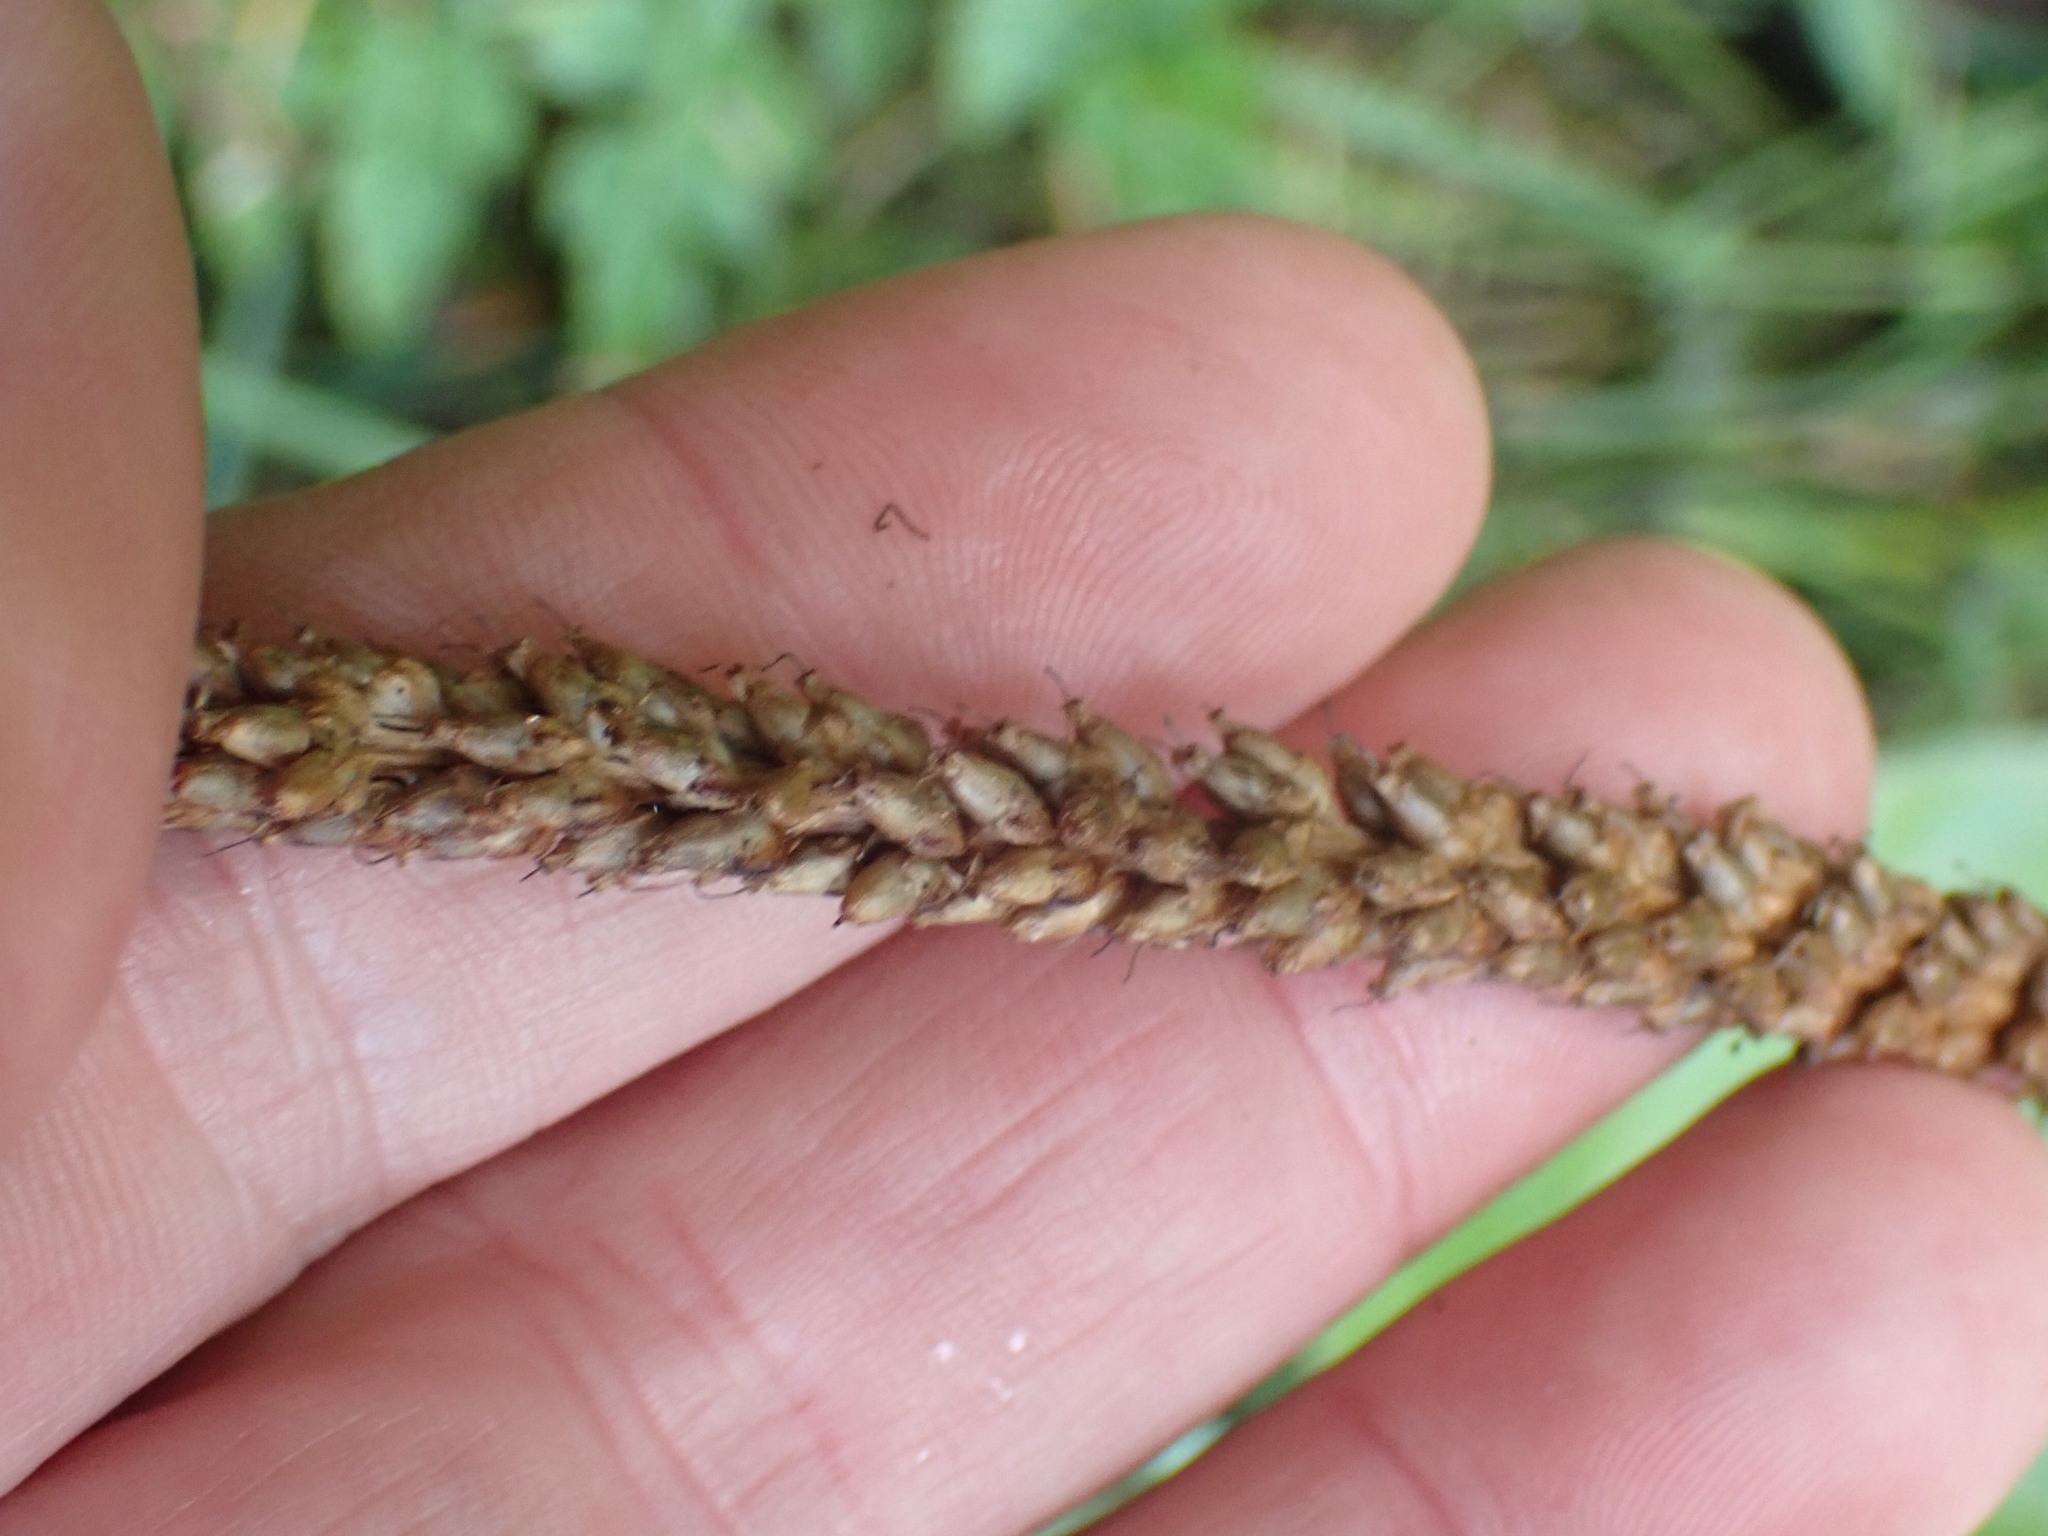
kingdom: Plantae
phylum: Tracheophyta
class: Magnoliopsida
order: Lamiales
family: Plantaginaceae
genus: Plantago
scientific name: Plantago major
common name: Common plantain
